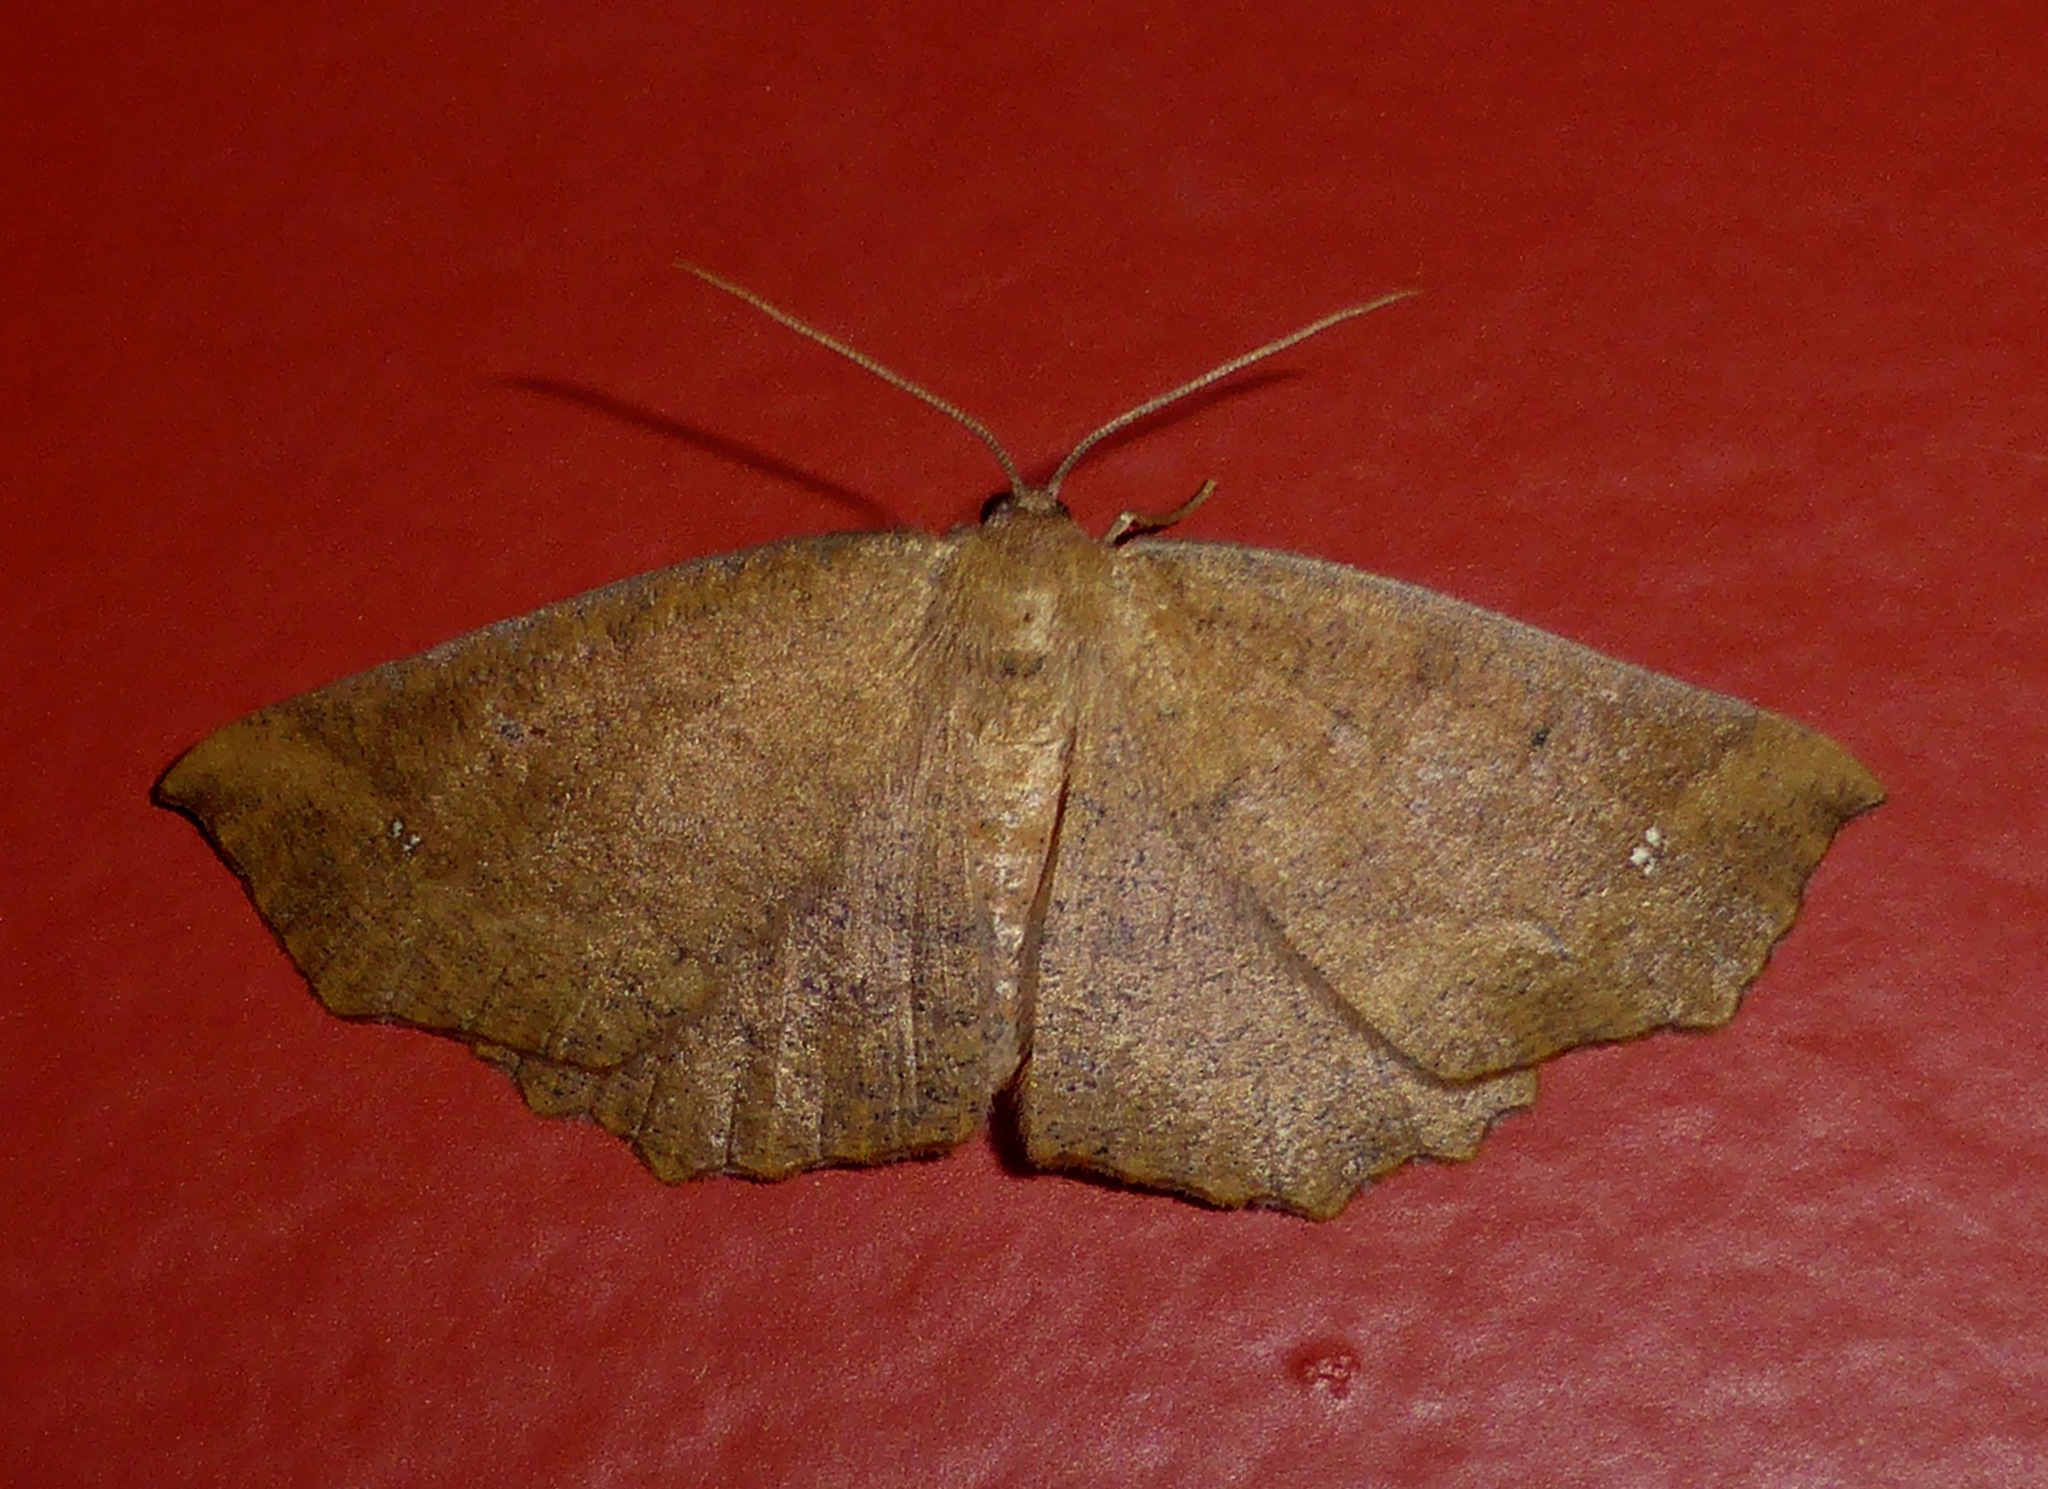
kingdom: Animalia
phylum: Arthropoda
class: Insecta
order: Lepidoptera
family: Geometridae
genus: Xyridacma
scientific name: Xyridacma ustaria
